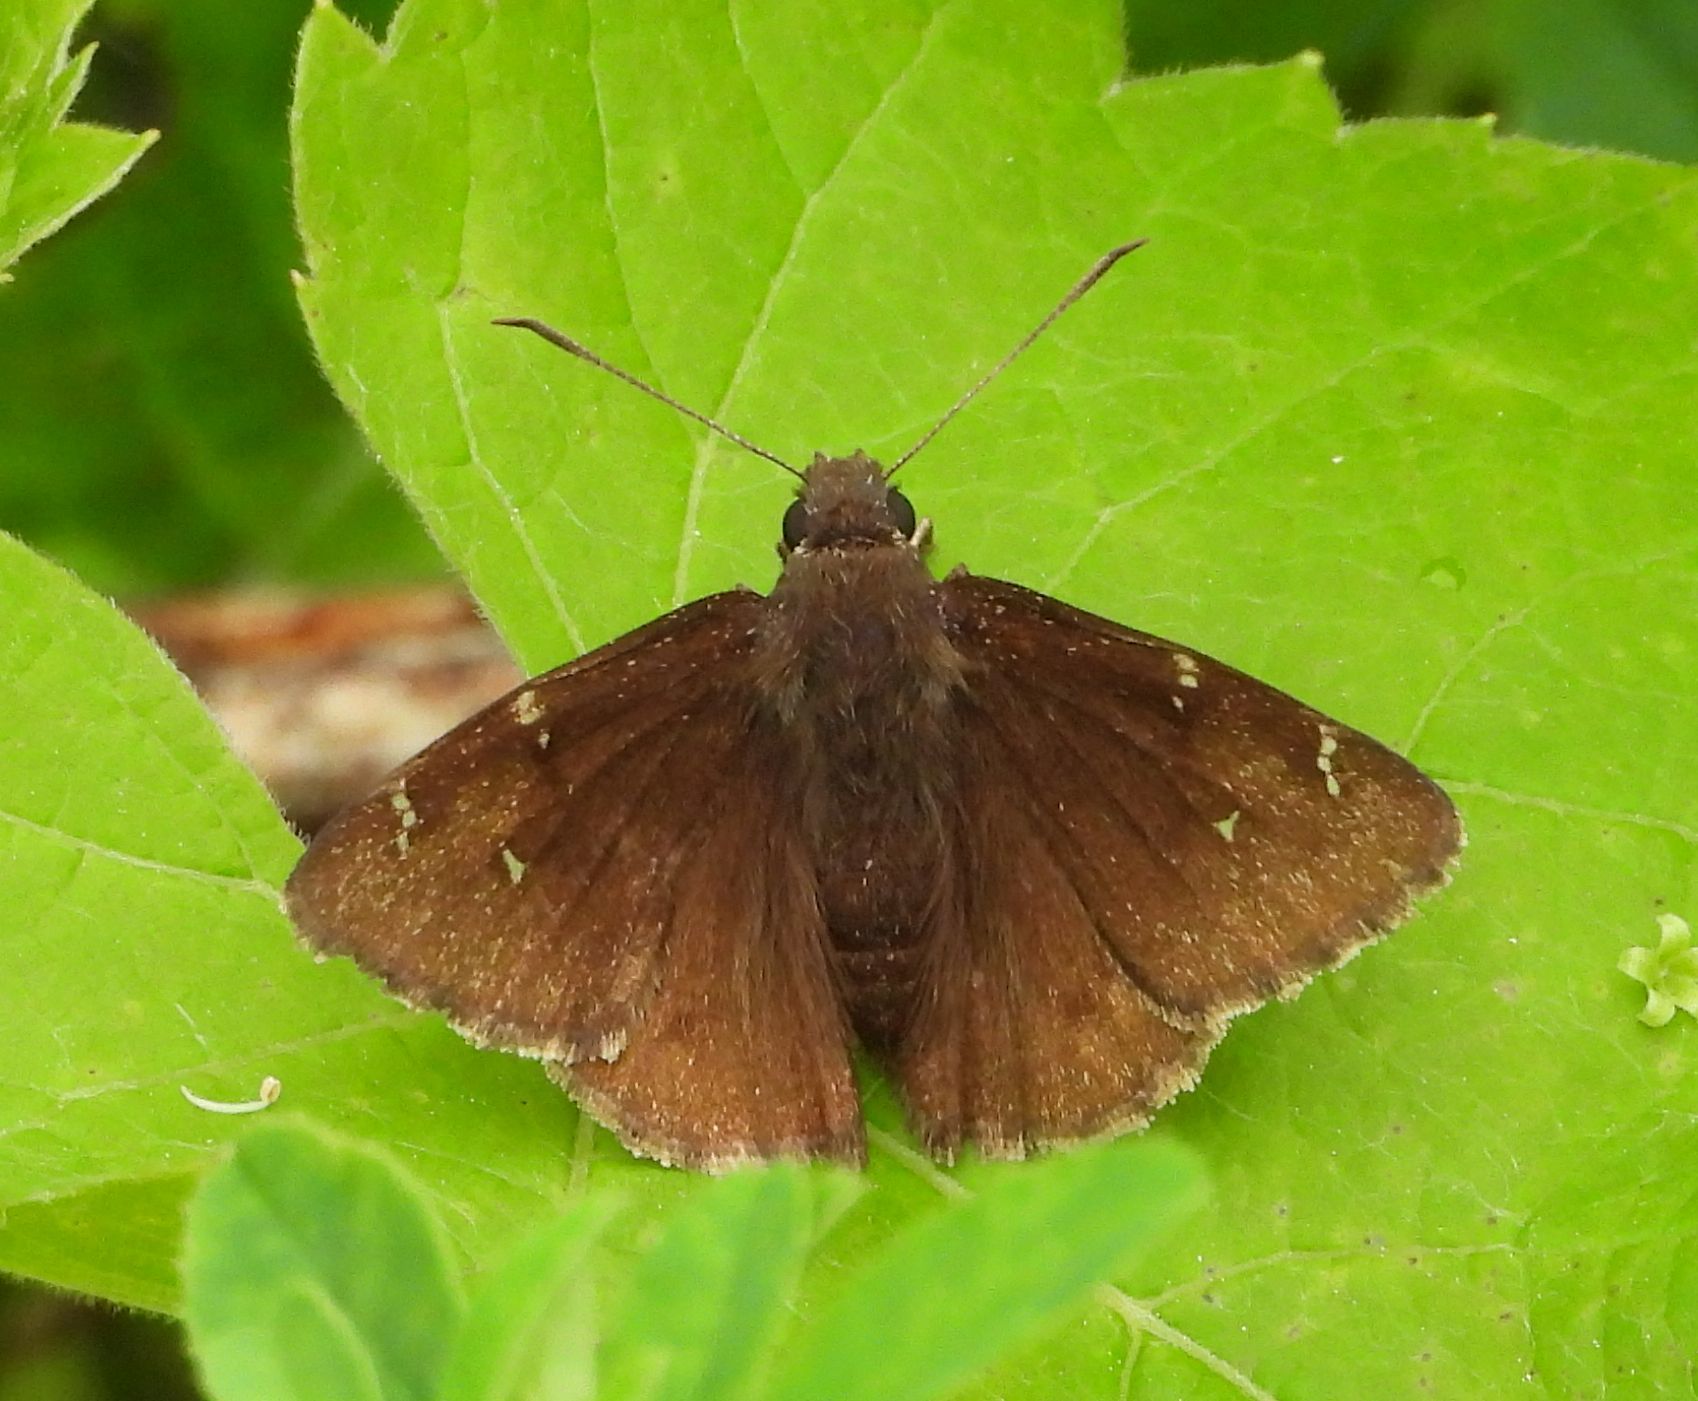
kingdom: Animalia
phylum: Arthropoda
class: Insecta
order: Lepidoptera
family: Hesperiidae
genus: Thorybes
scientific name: Thorybes pylades
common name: Northern cloudywing
